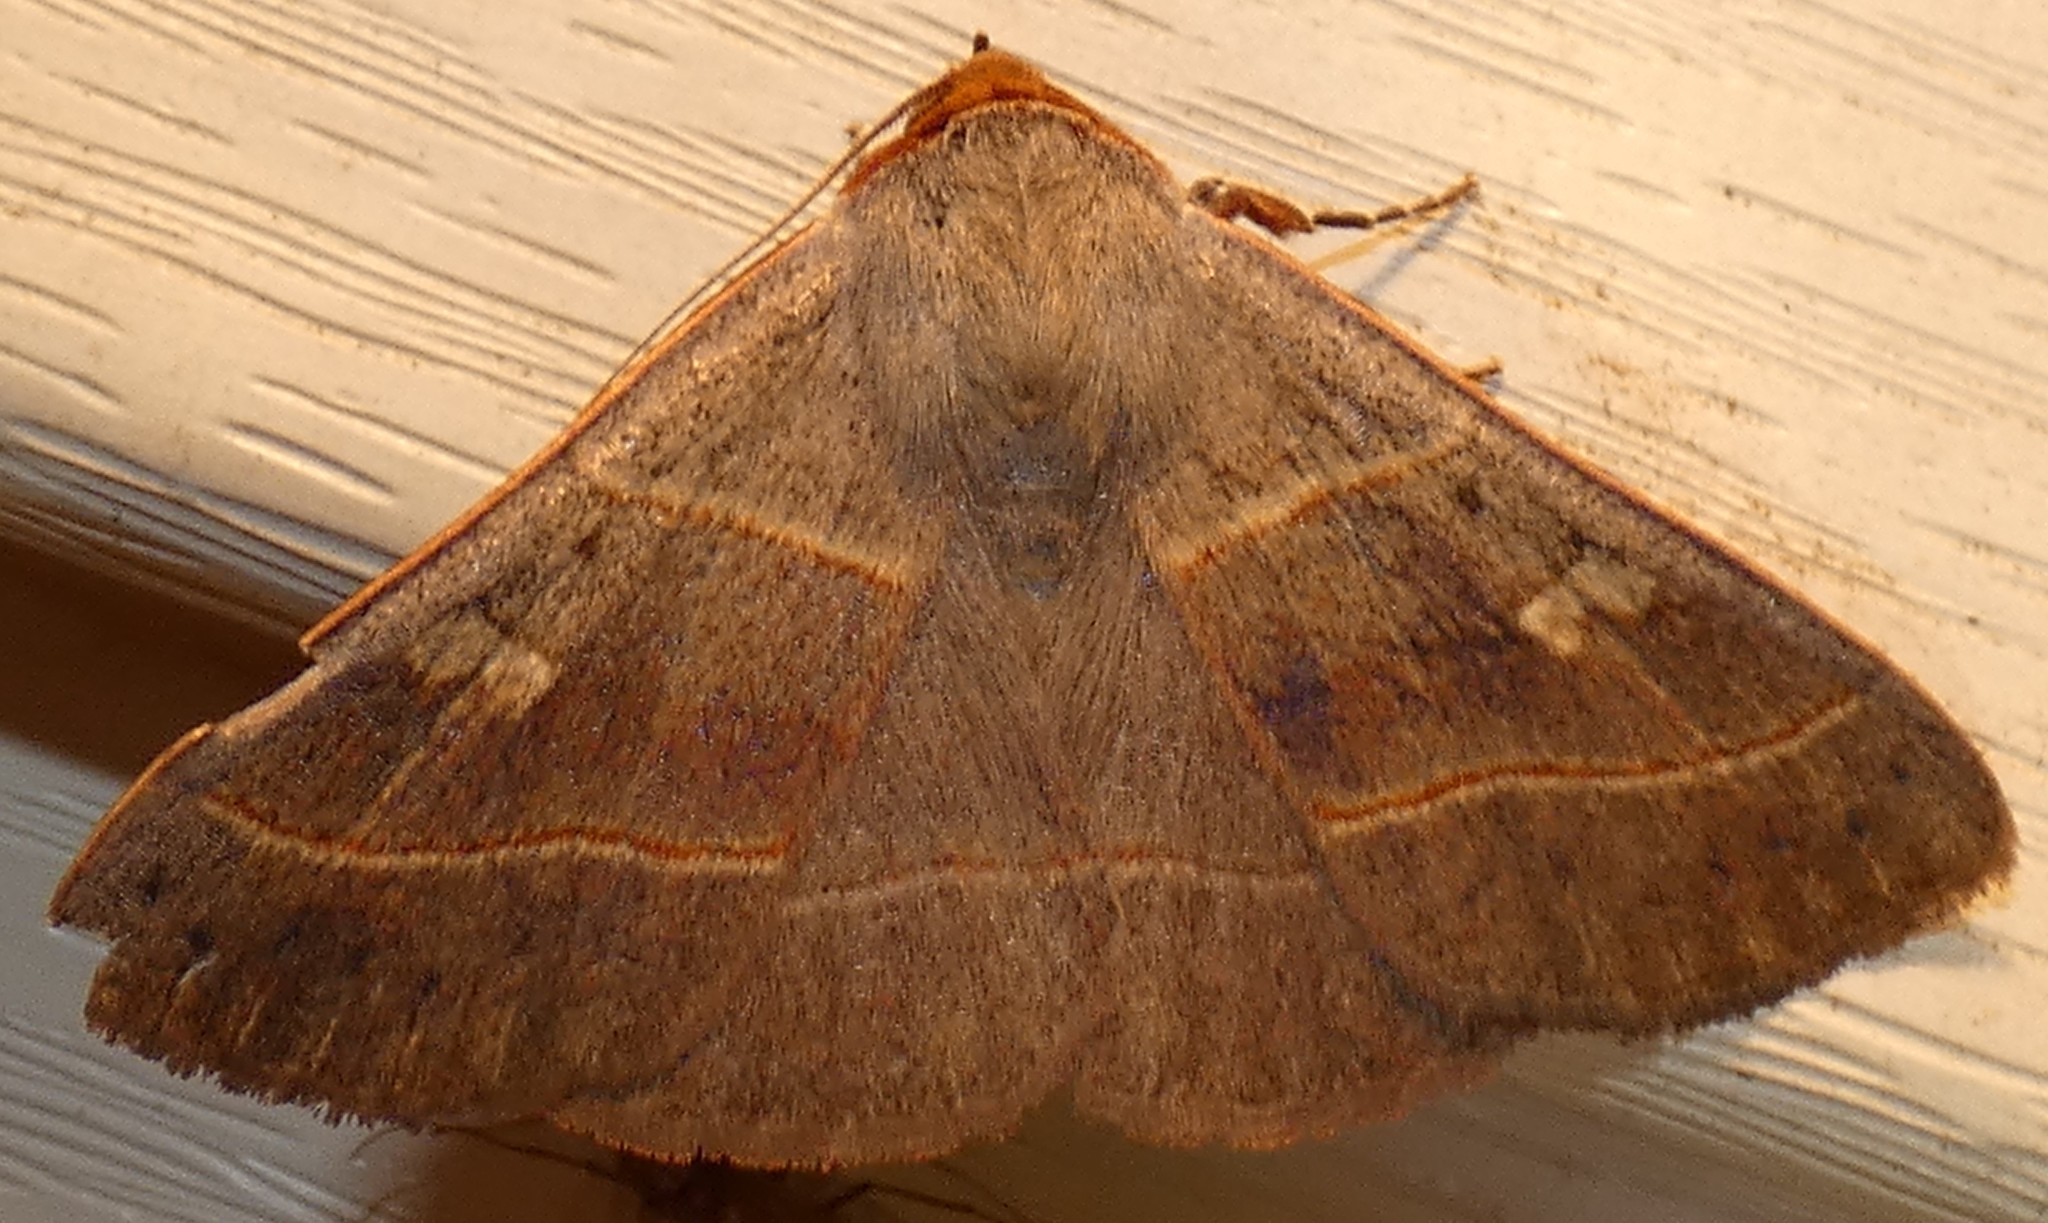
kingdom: Animalia
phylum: Arthropoda
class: Insecta
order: Lepidoptera
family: Erebidae
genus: Panopoda
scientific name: Panopoda rufimargo
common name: Red-lined panopoda moth
